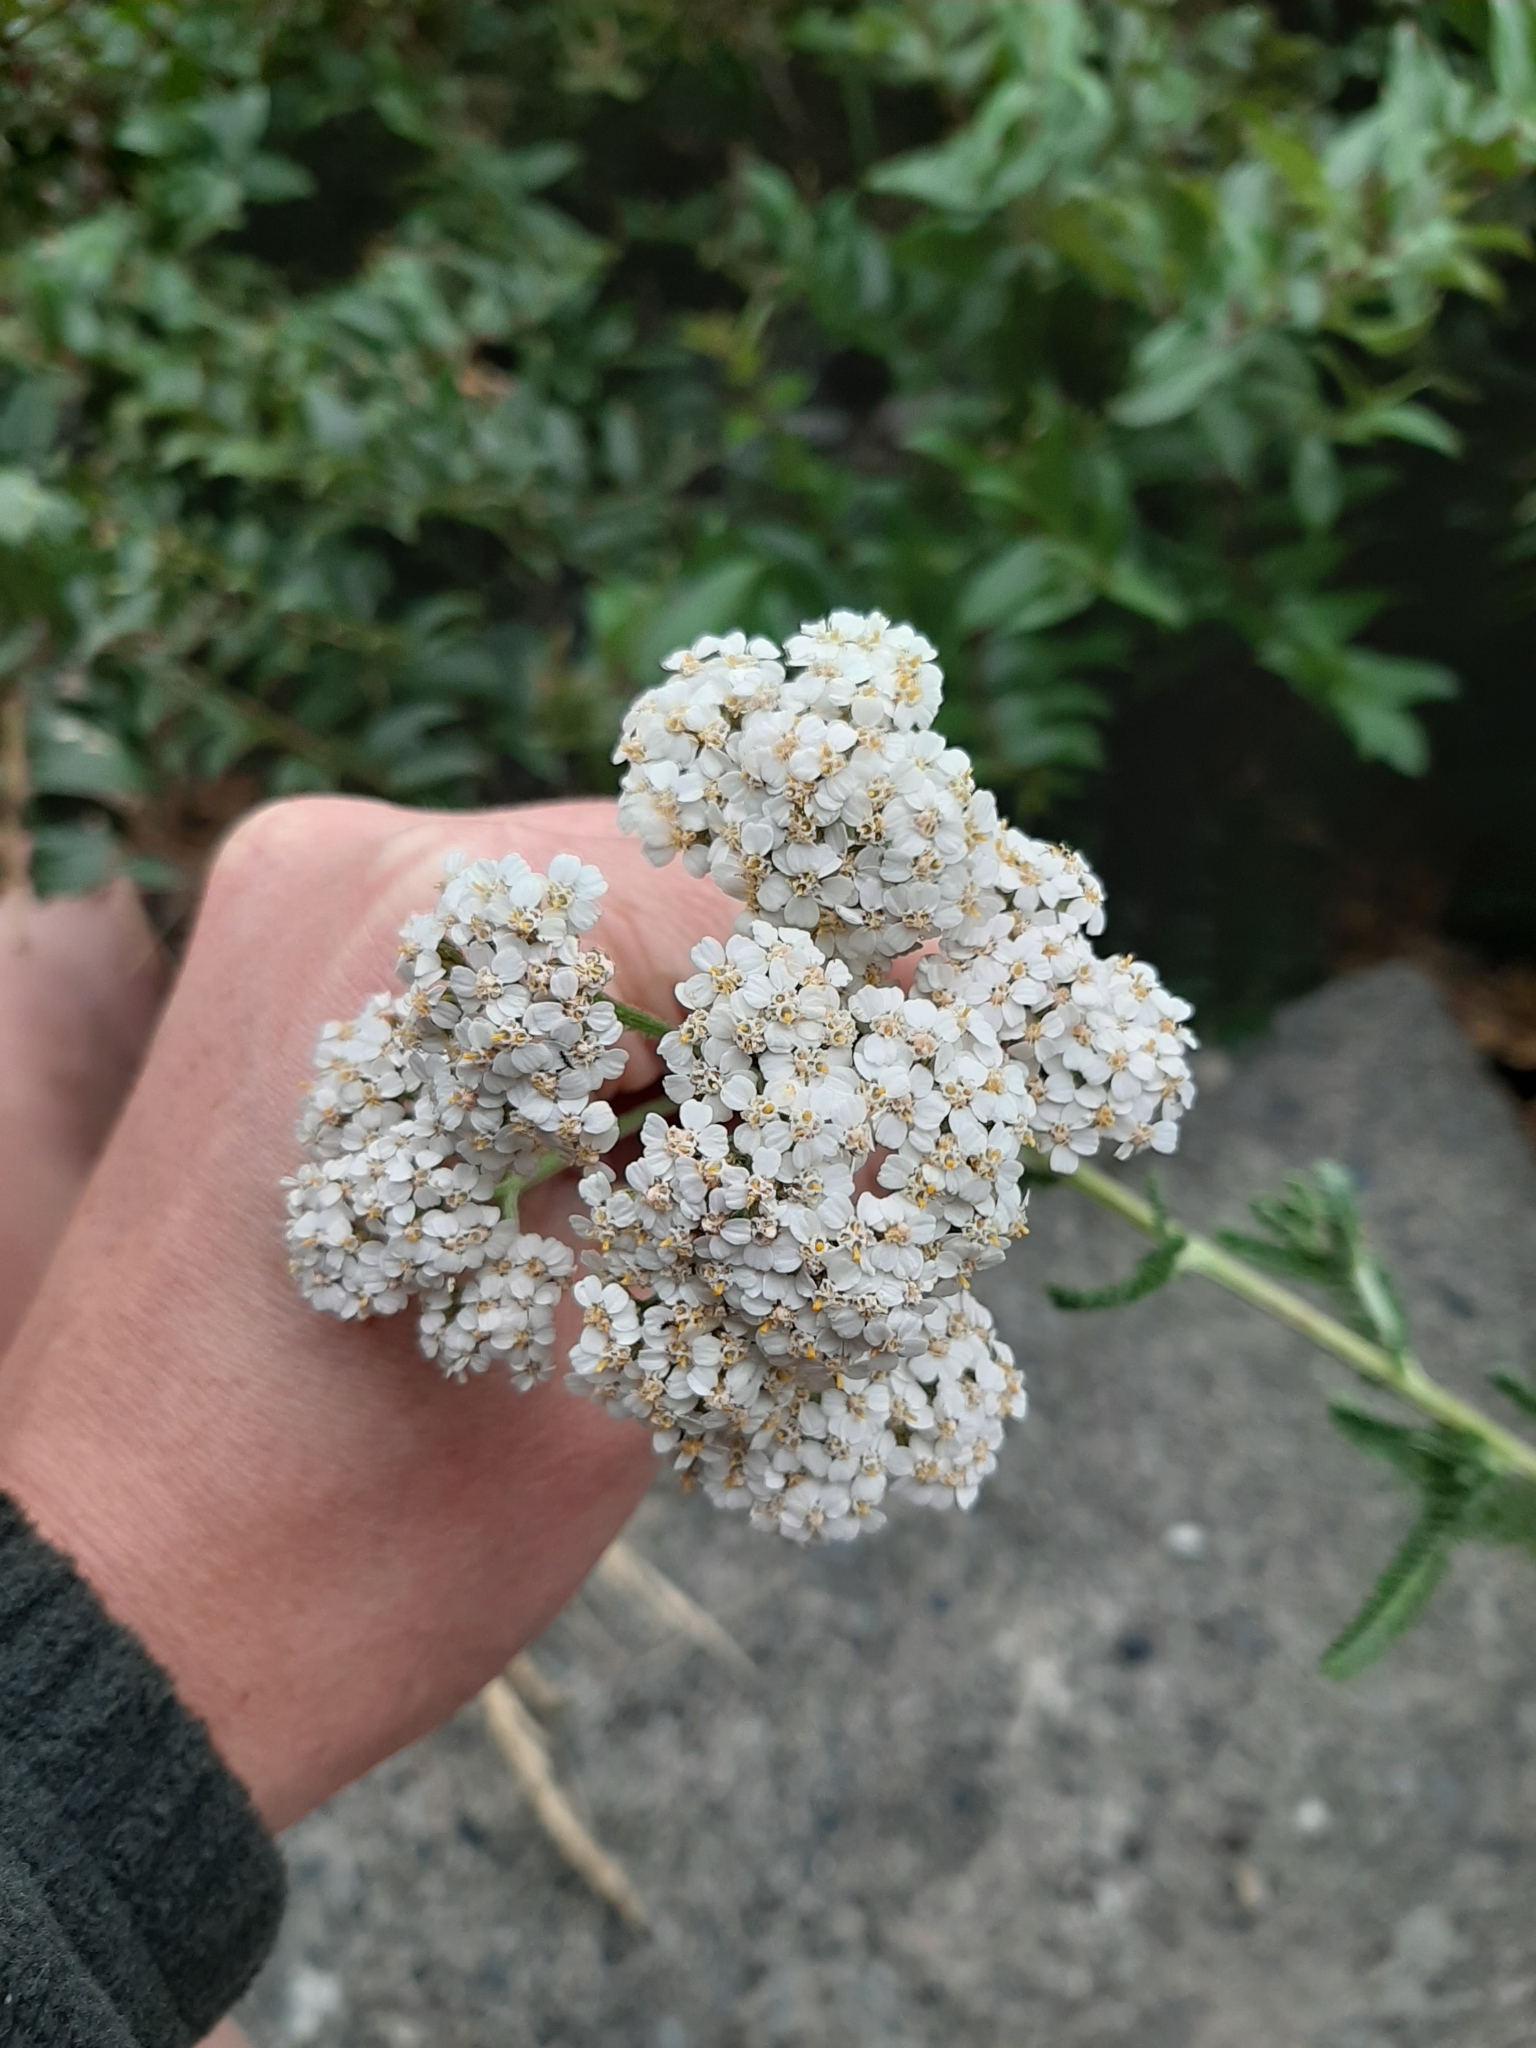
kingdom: Plantae
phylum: Tracheophyta
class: Magnoliopsida
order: Asterales
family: Asteraceae
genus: Achillea
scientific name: Achillea millefolium
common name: Yarrow
